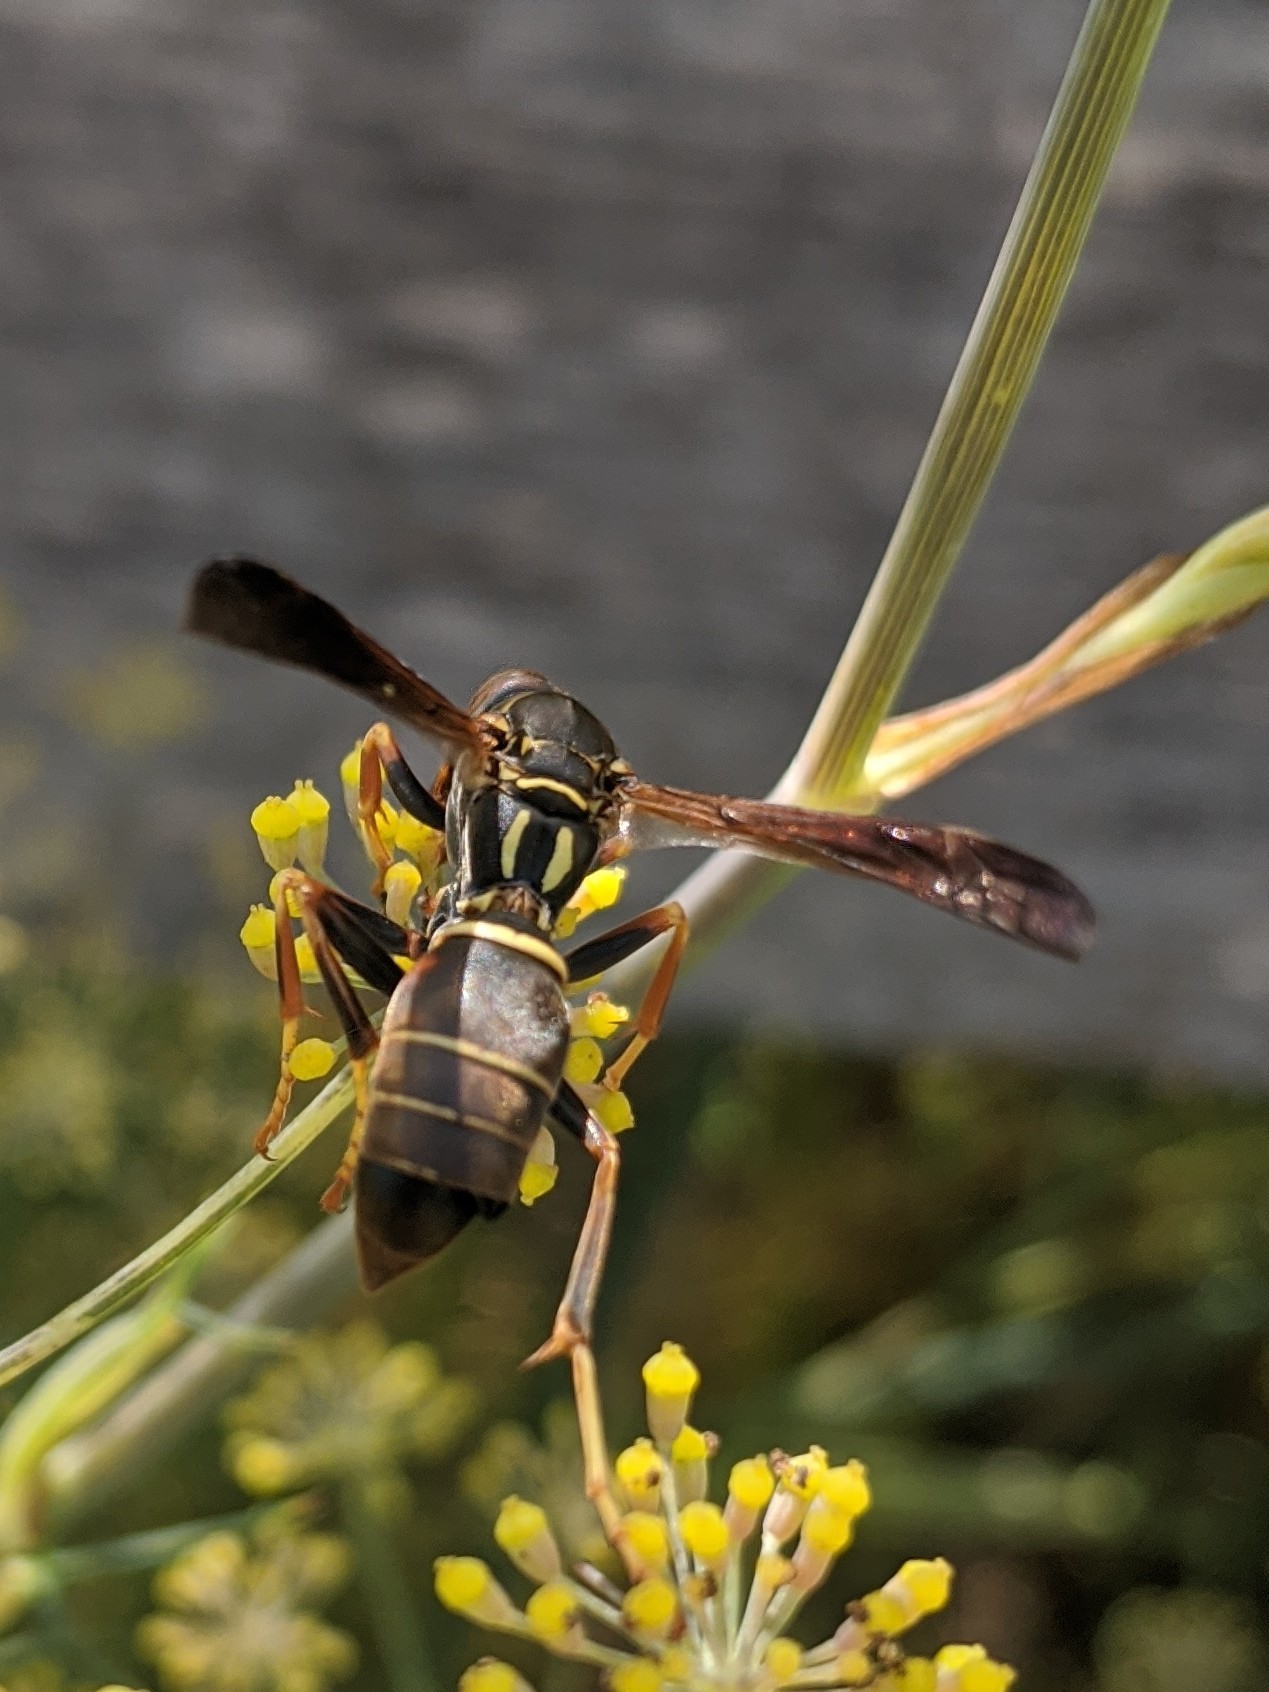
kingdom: Animalia
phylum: Arthropoda
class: Insecta
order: Strepsiptera
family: Xenidae
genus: Xenos
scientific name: Xenos pecki
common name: Twisted wing parasite
